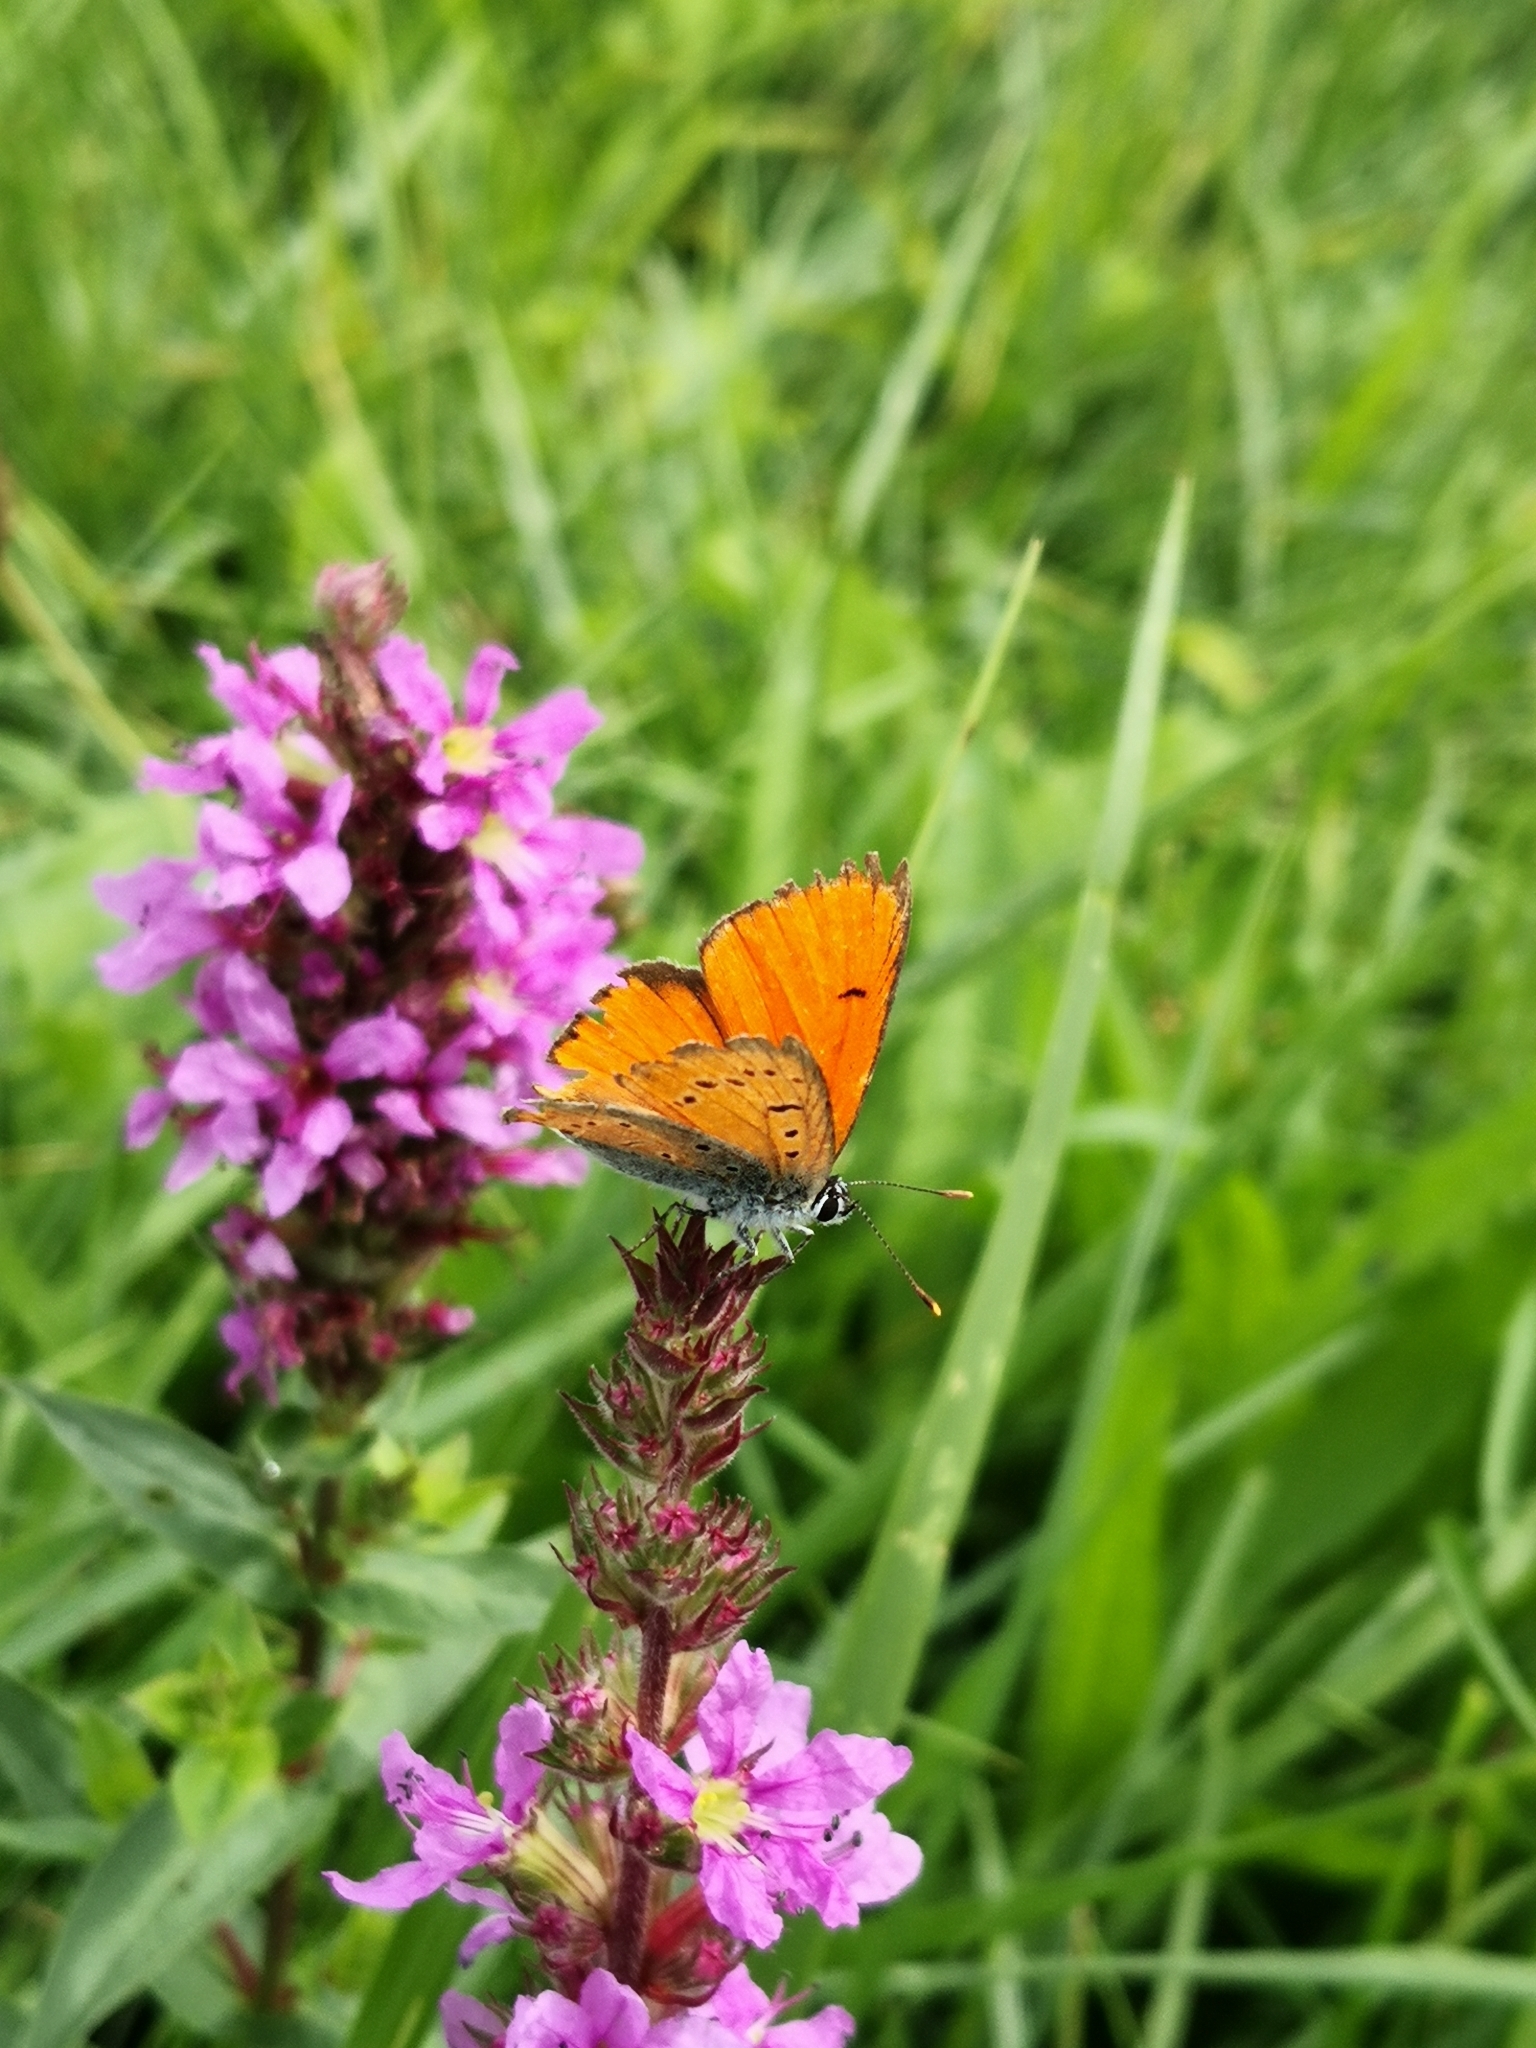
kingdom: Animalia
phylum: Arthropoda
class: Insecta
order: Lepidoptera
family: Lycaenidae
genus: Lycaena
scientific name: Lycaena dispar
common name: Large copper
